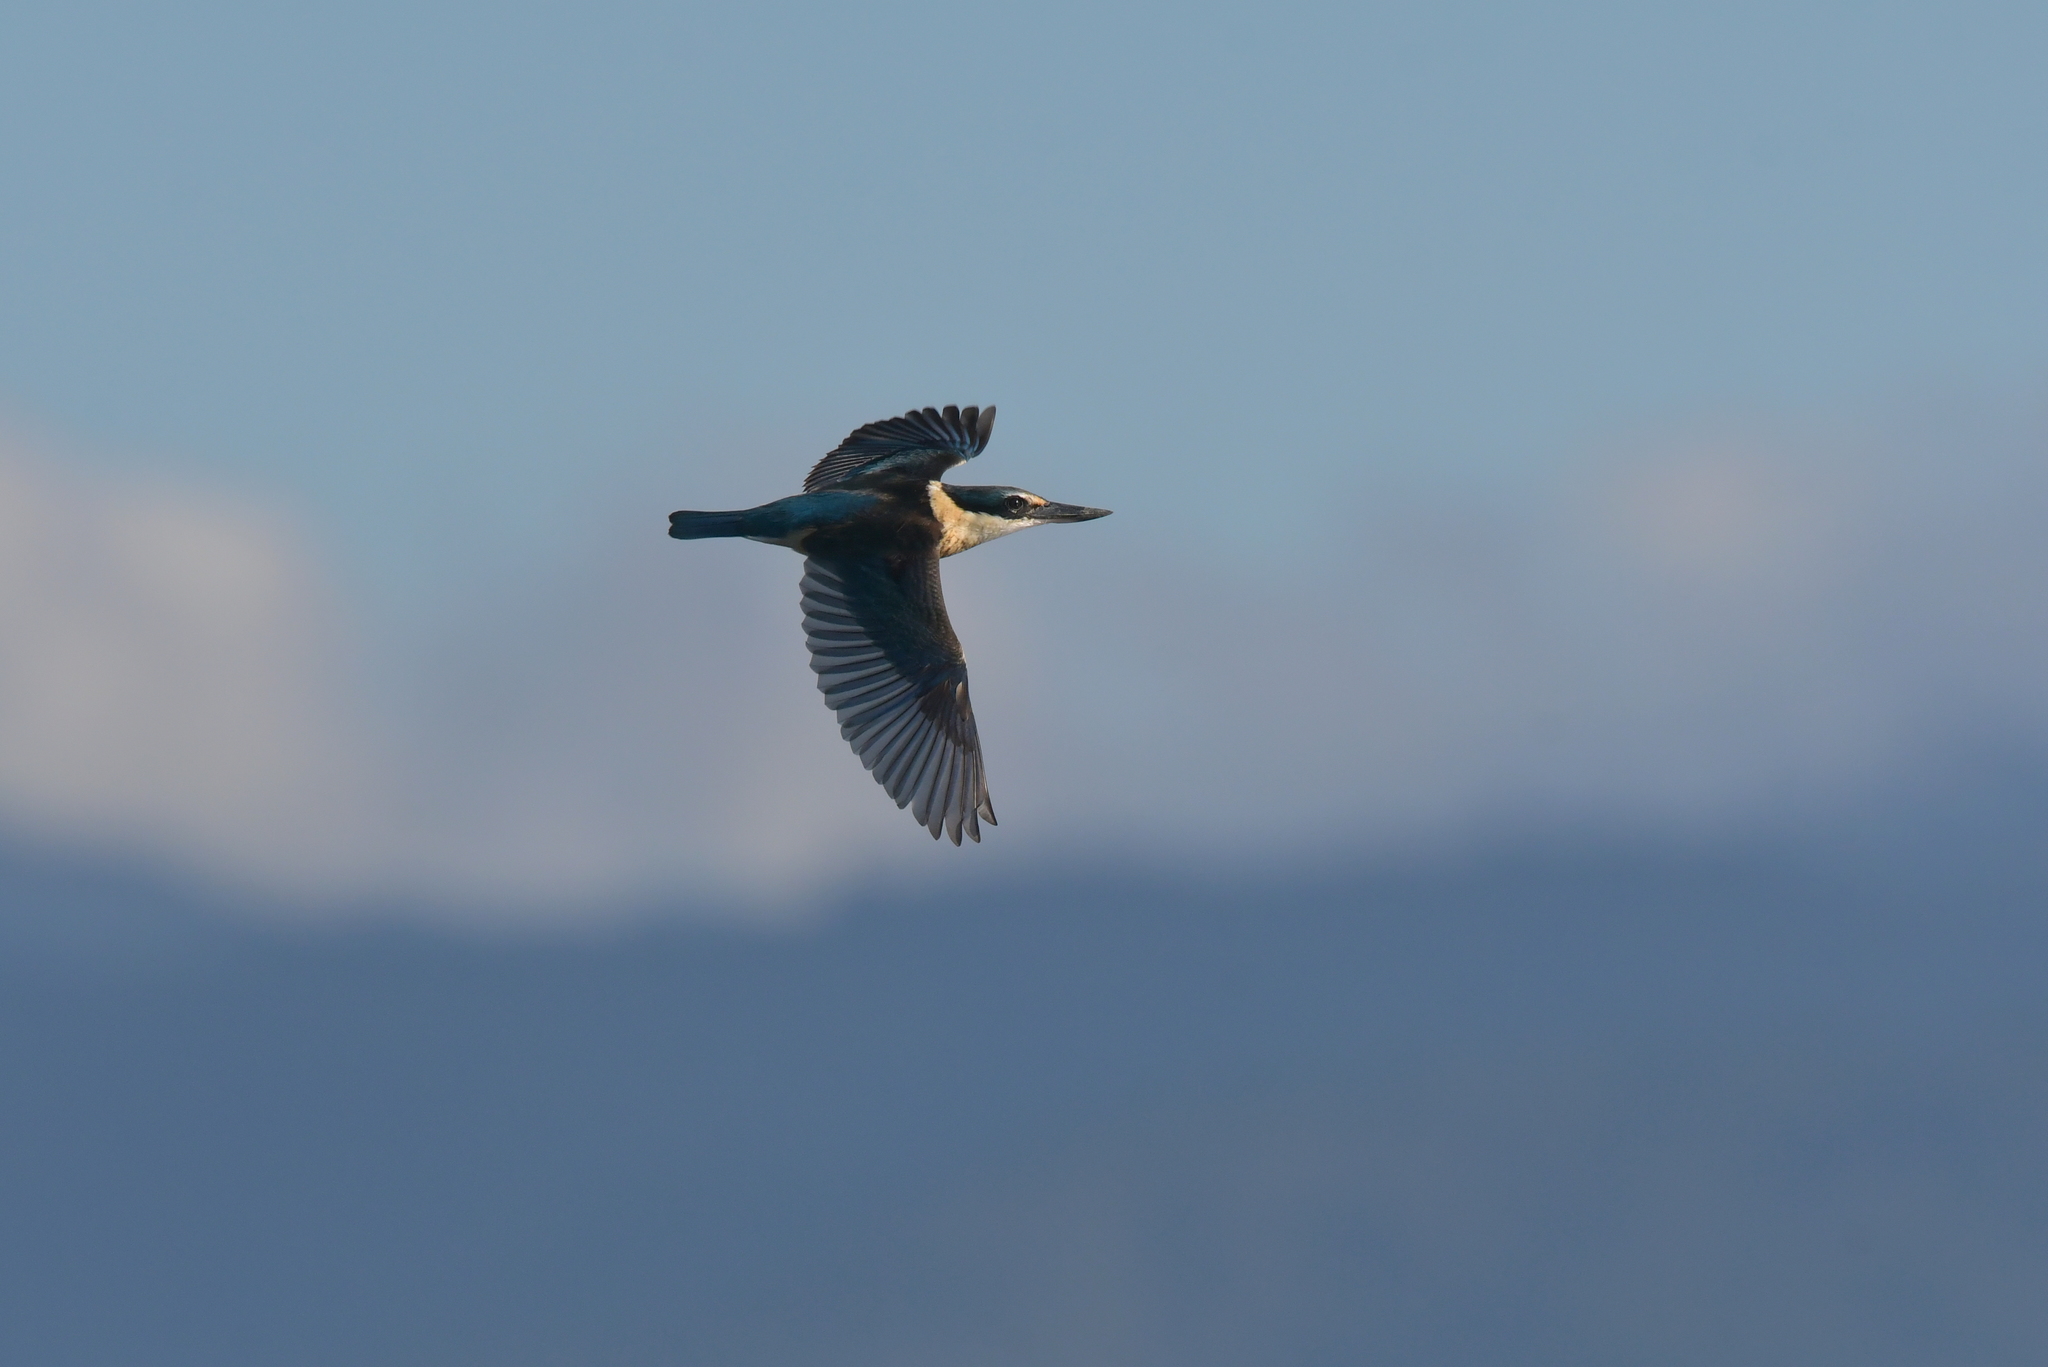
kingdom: Animalia
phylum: Chordata
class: Aves
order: Coraciiformes
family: Alcedinidae
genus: Todiramphus
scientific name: Todiramphus sanctus
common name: Sacred kingfisher
